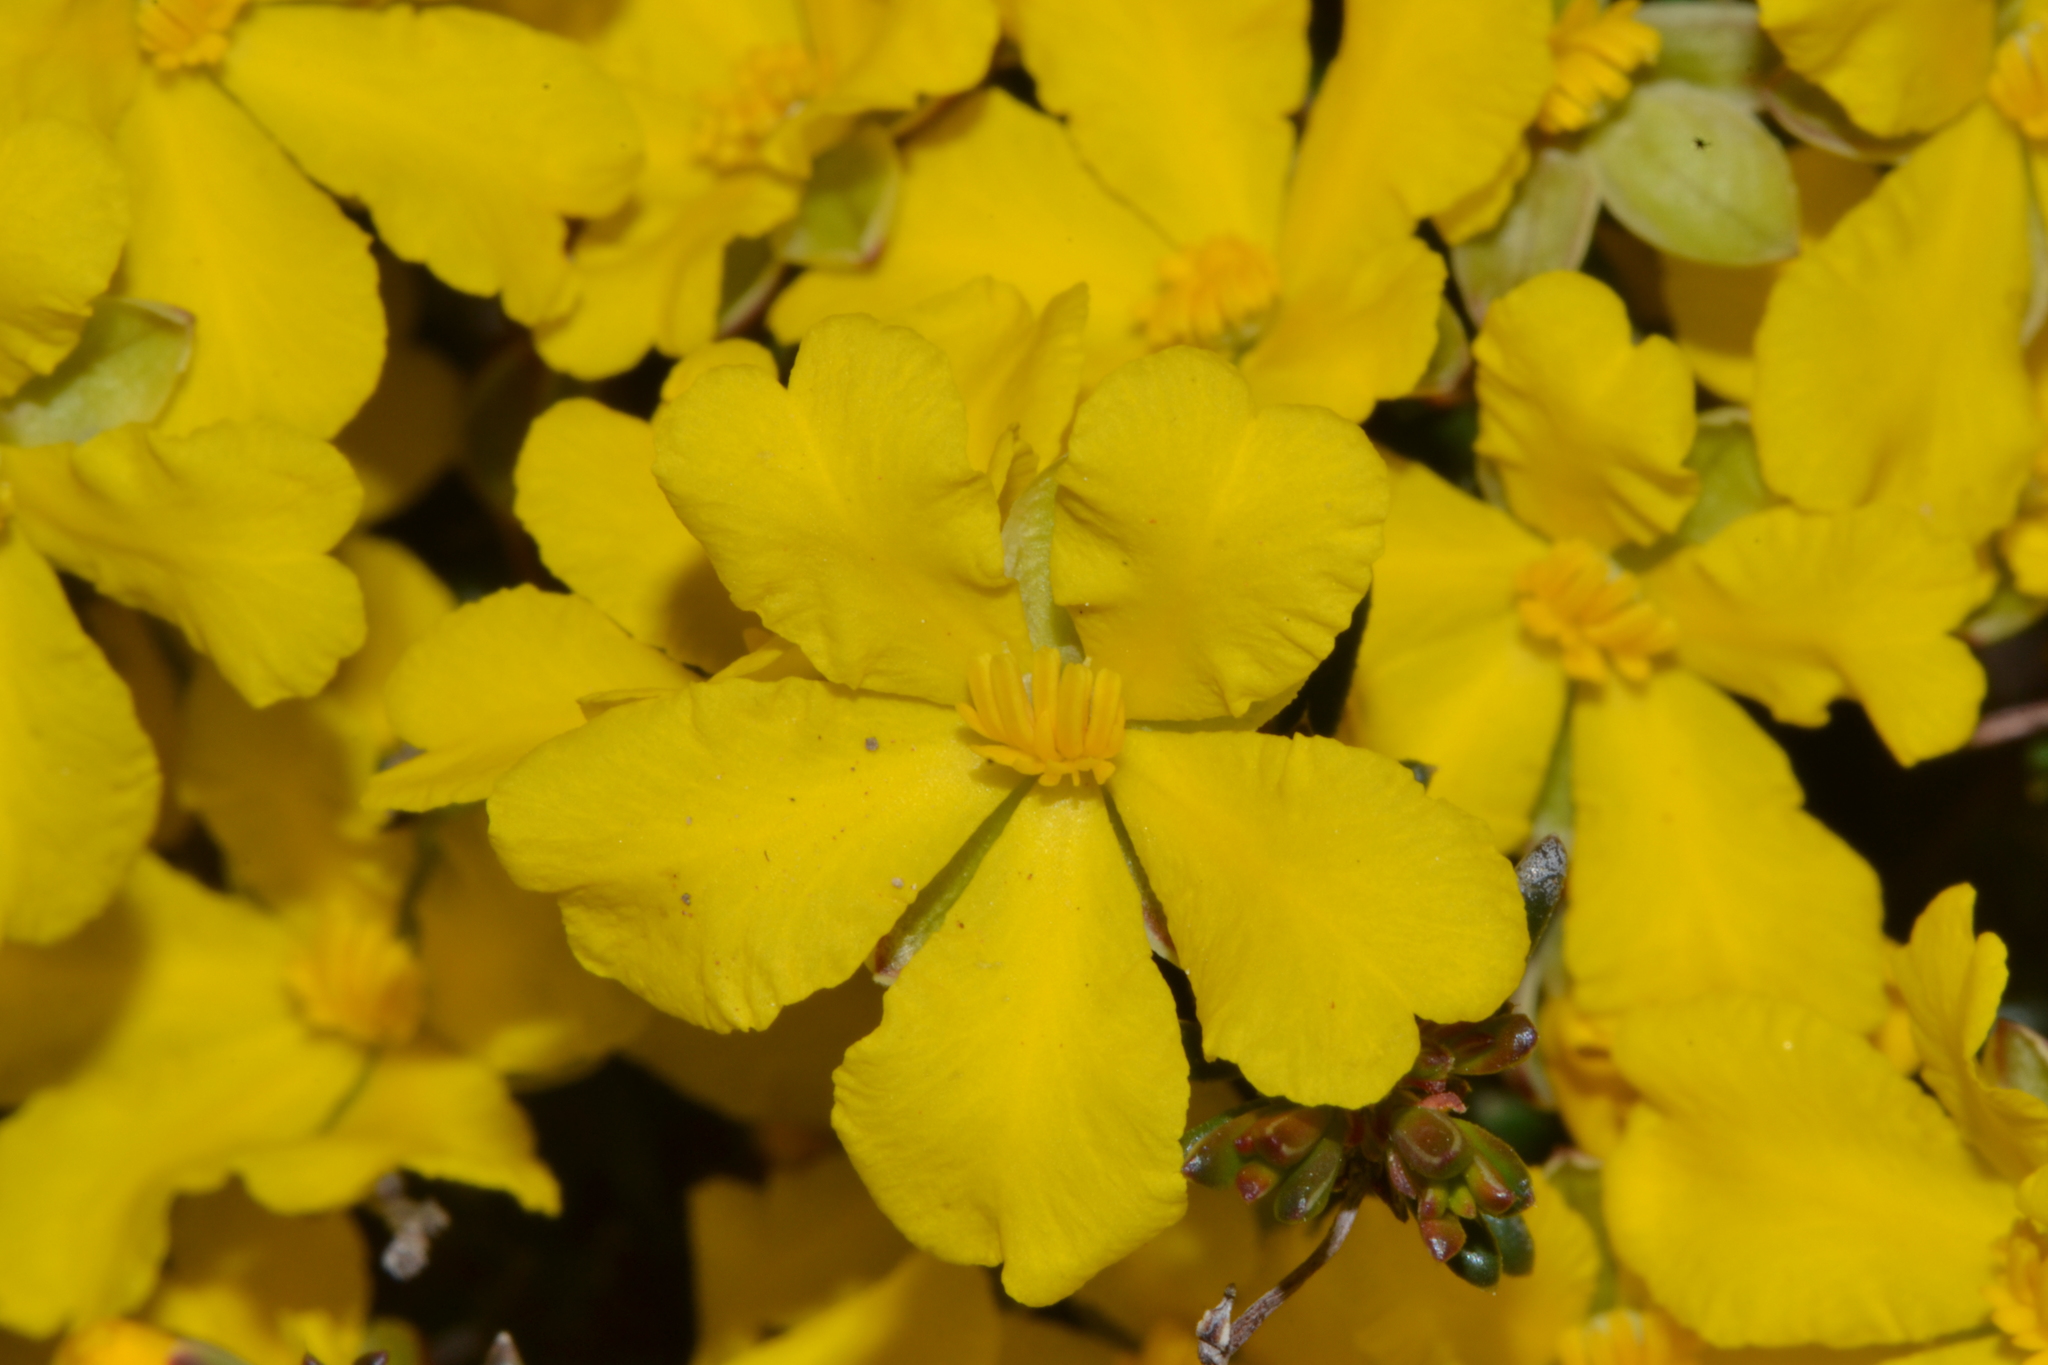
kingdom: Plantae
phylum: Tracheophyta
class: Magnoliopsida
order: Dilleniales
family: Dilleniaceae
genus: Hibbertia
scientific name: Hibbertia lineata
